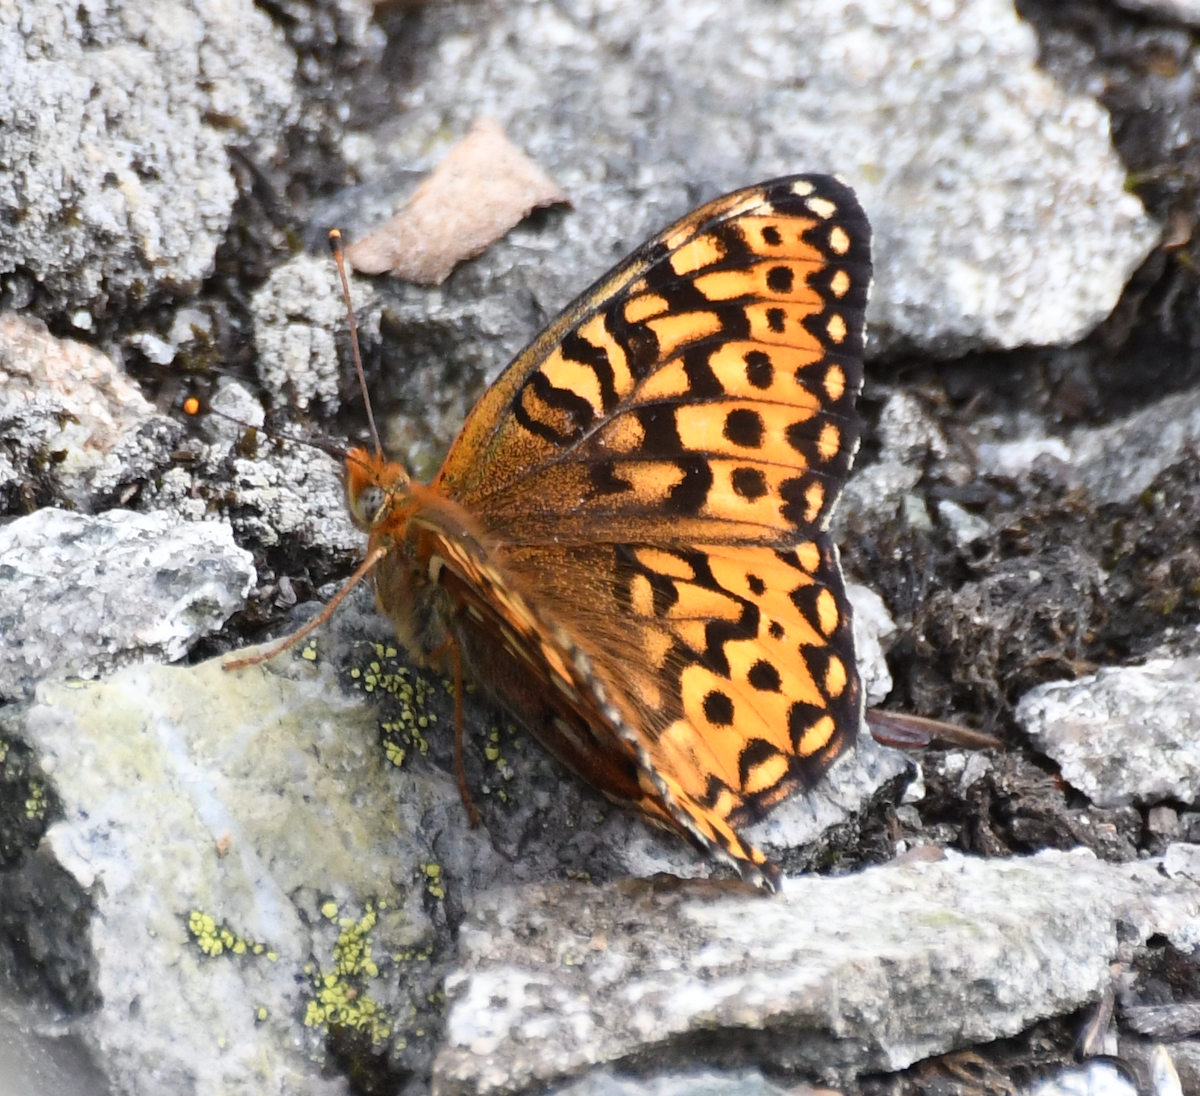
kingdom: Animalia
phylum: Arthropoda
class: Insecta
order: Lepidoptera
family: Nymphalidae
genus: Speyeria
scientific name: Speyeria hydaspe
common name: Hydaspe fritillary
